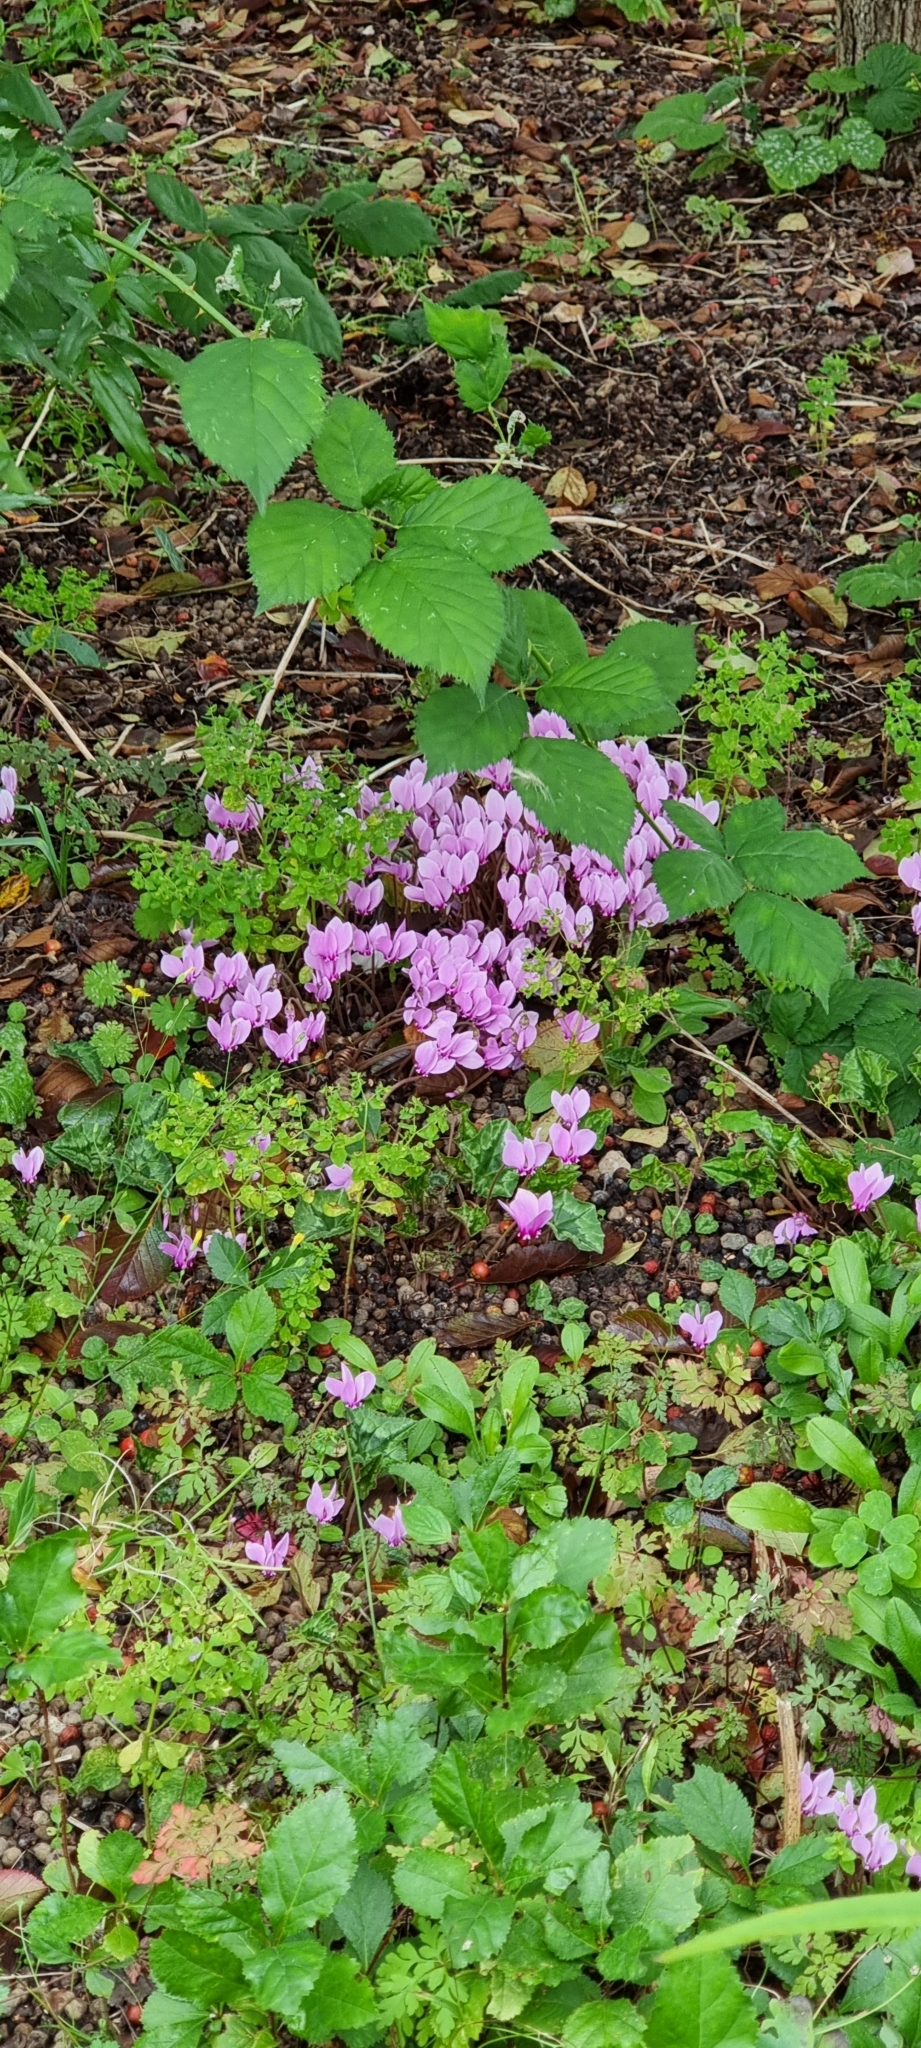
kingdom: Plantae
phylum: Tracheophyta
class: Magnoliopsida
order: Ericales
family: Primulaceae
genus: Cyclamen
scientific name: Cyclamen hederifolium
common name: Sowbread
